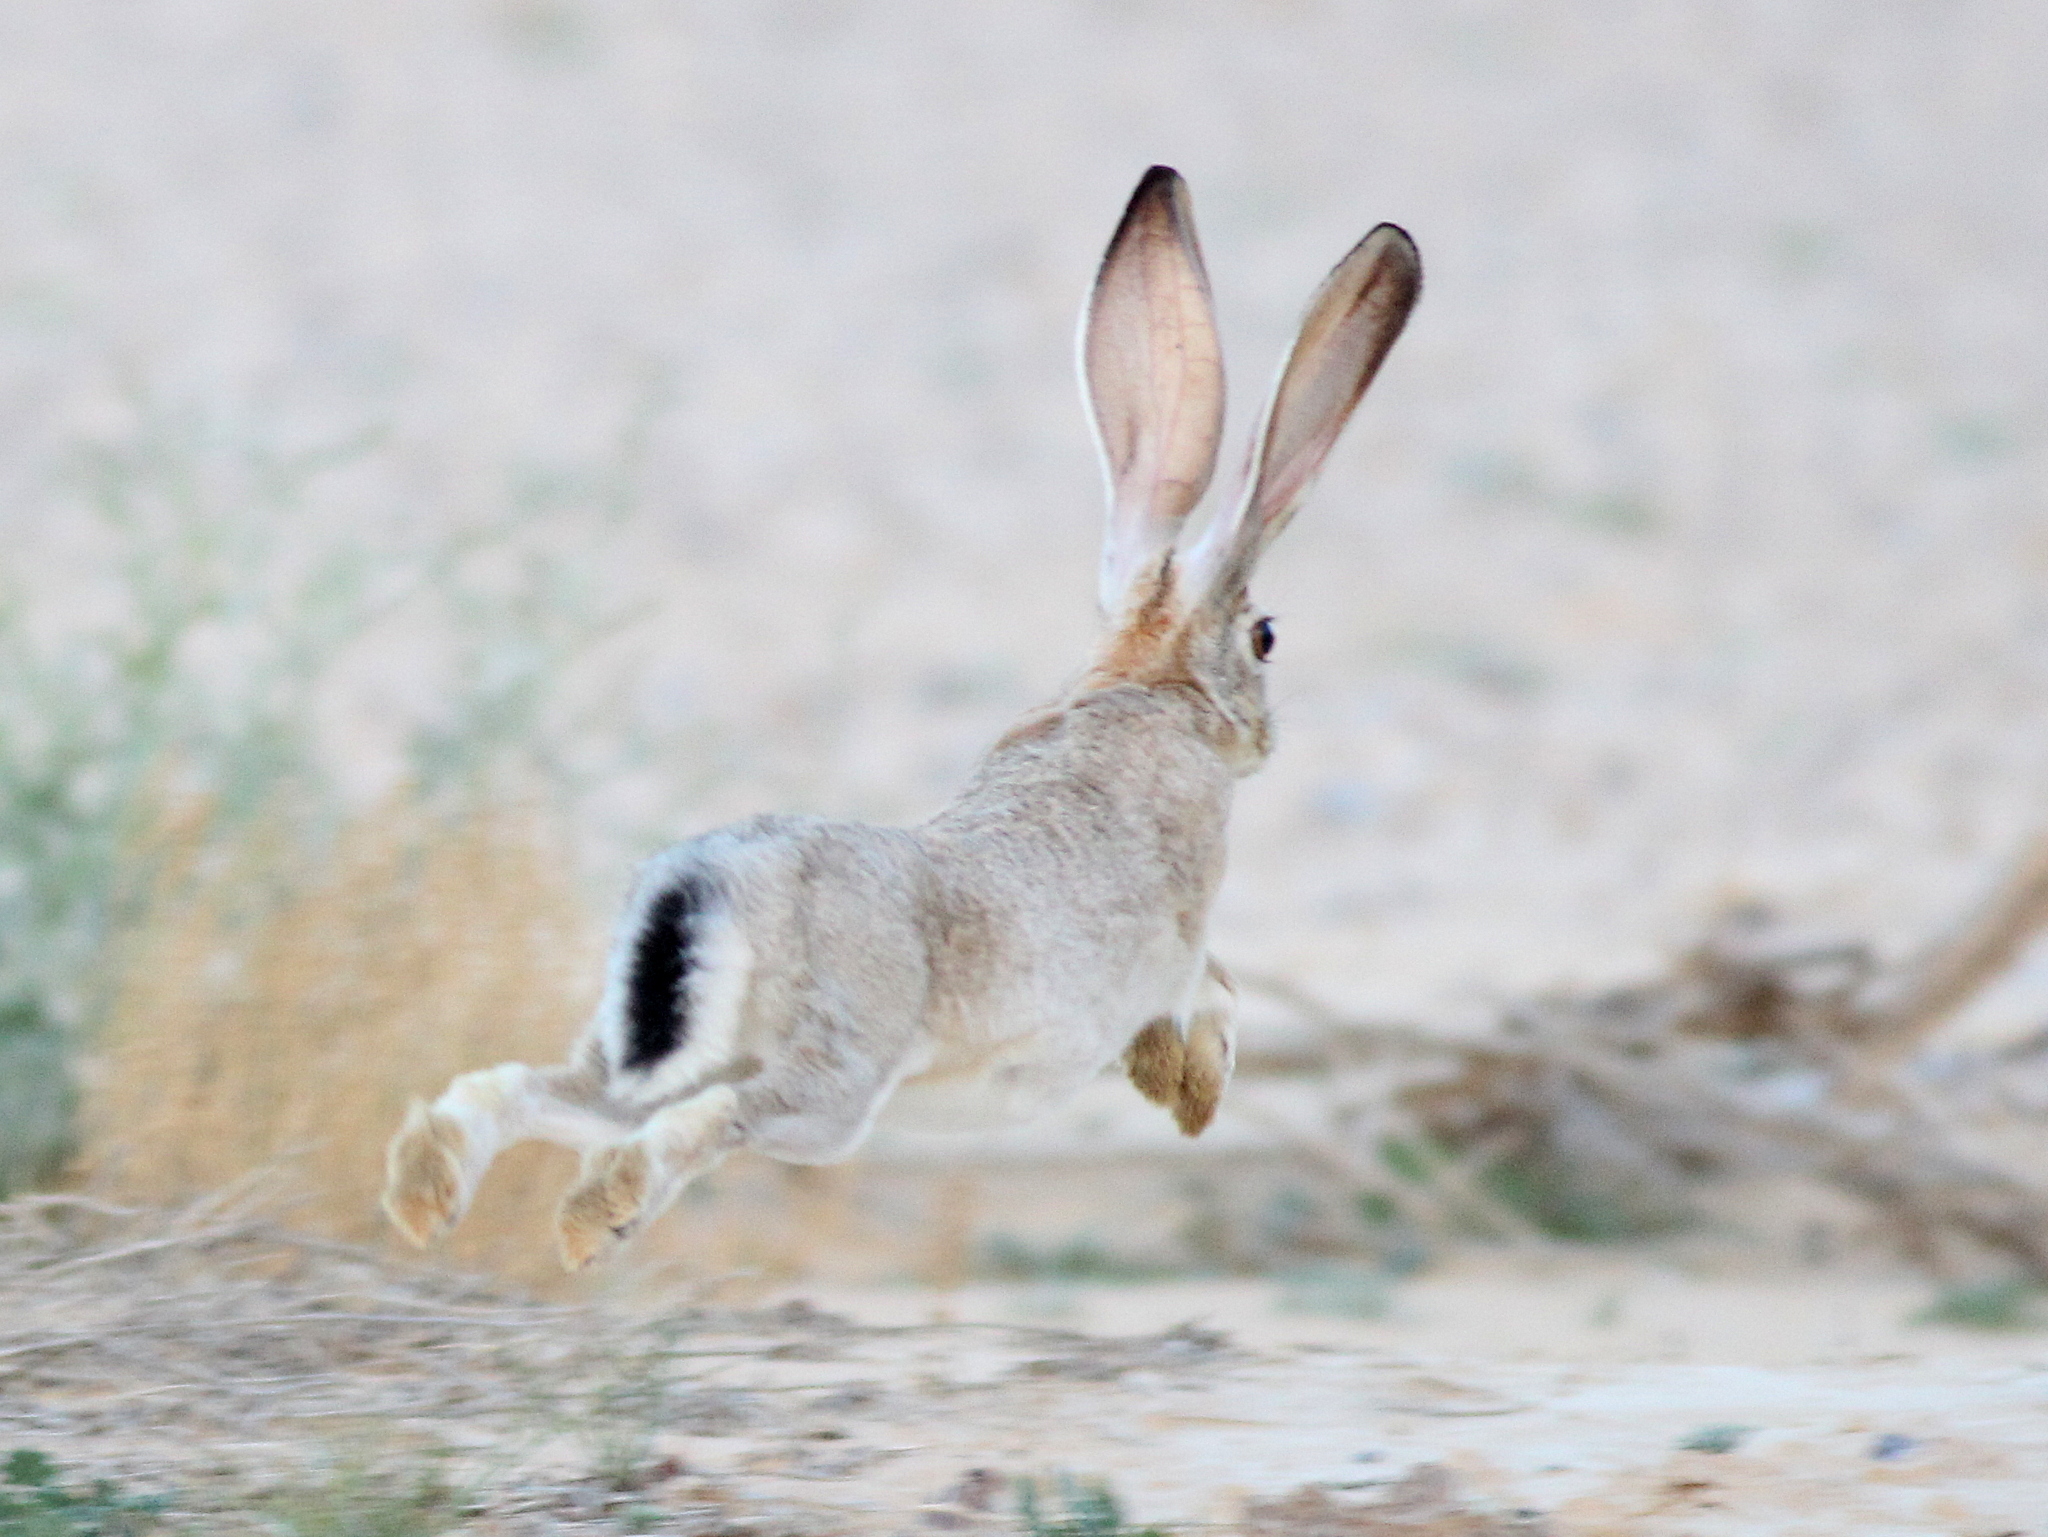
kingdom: Animalia
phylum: Chordata
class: Mammalia
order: Lagomorpha
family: Leporidae
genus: Lepus
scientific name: Lepus capensis
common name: Cape hare
